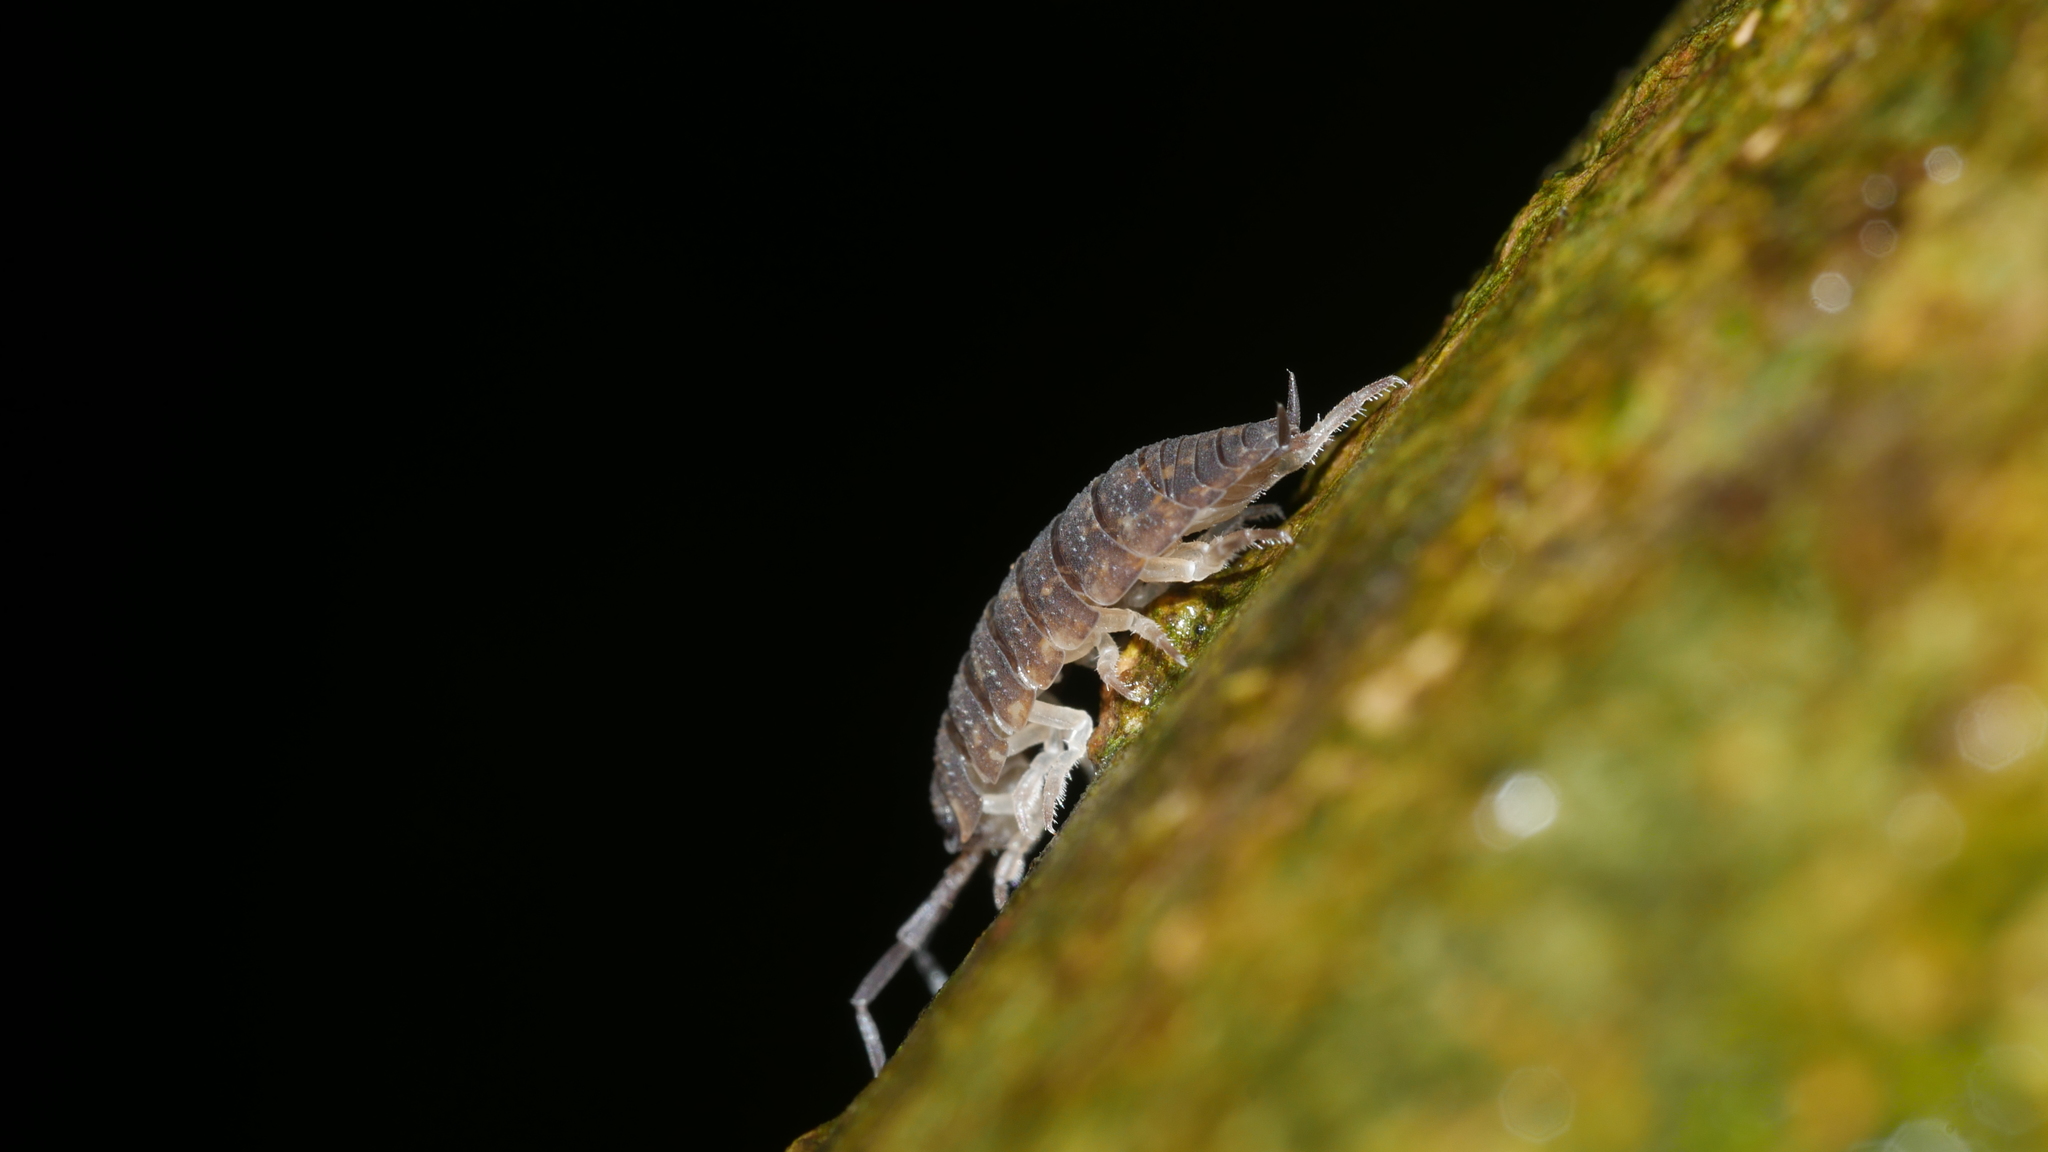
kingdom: Animalia
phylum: Arthropoda
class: Malacostraca
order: Isopoda
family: Porcellionidae
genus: Porcellio
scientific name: Porcellio scaber
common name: Common rough woodlouse
